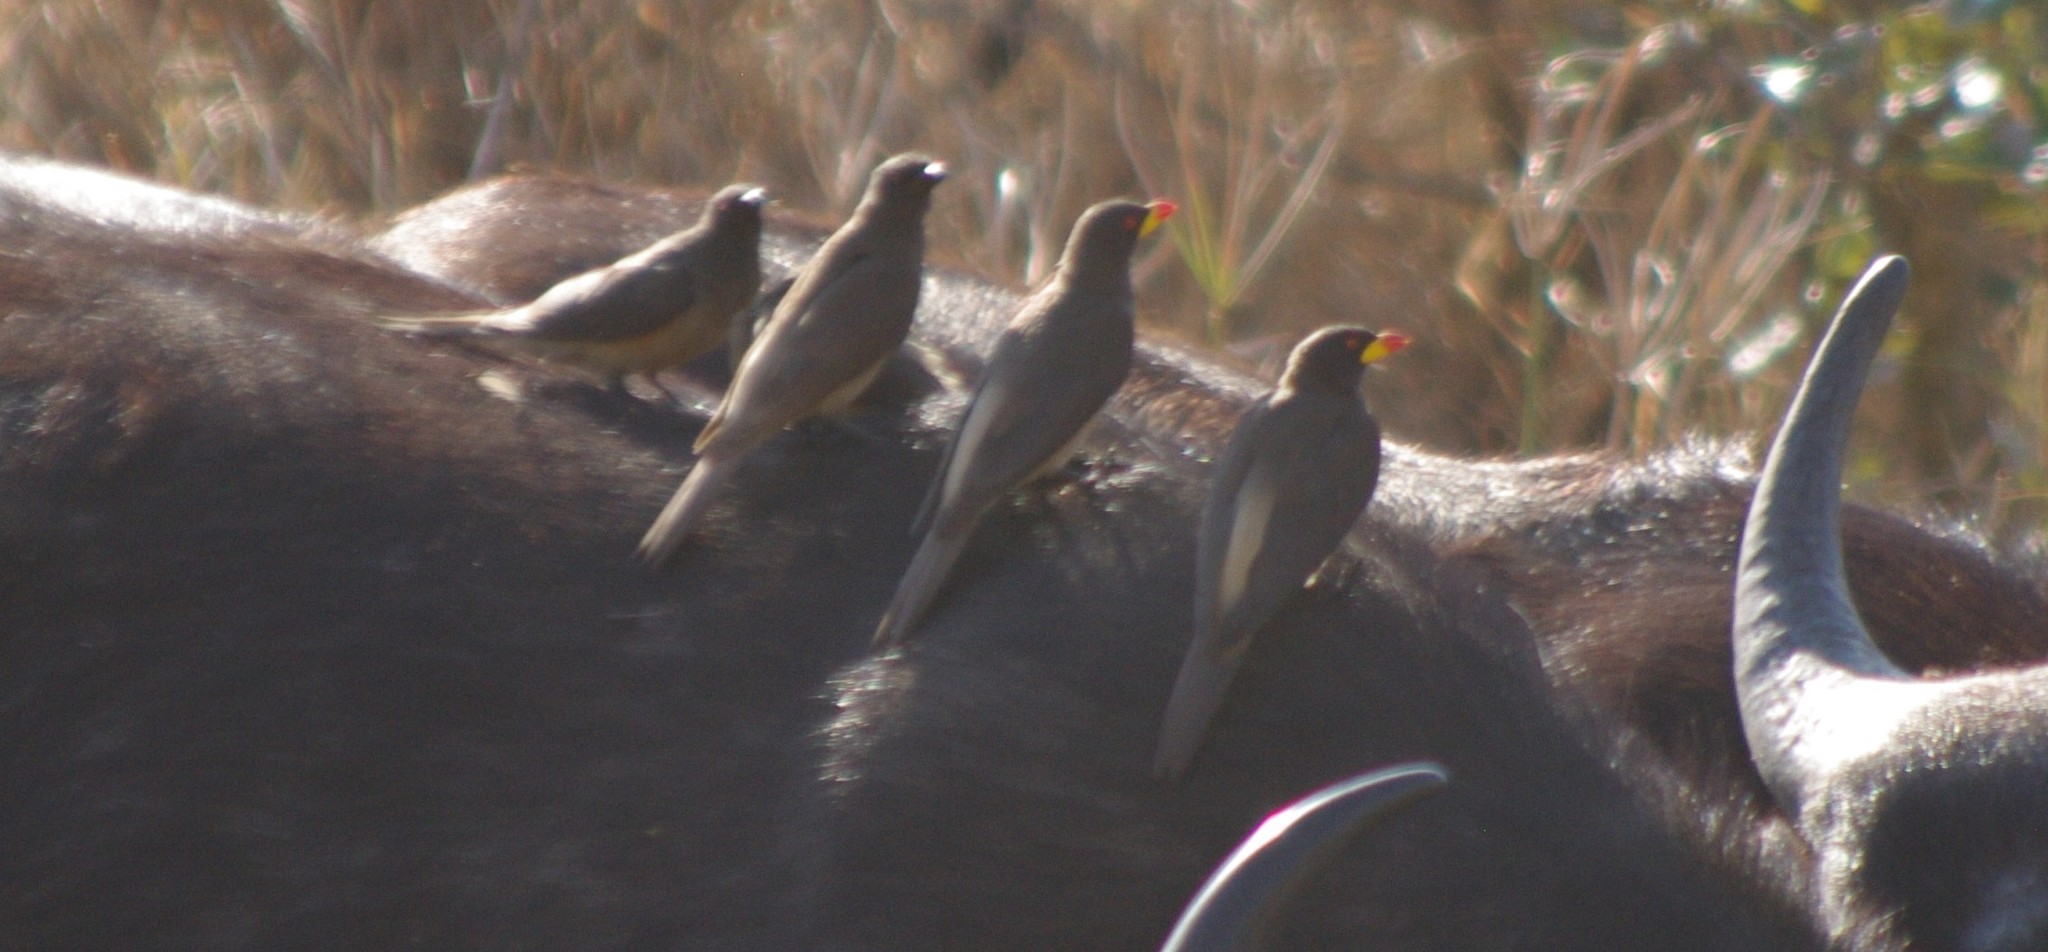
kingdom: Animalia
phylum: Chordata
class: Aves
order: Passeriformes
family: Buphagidae
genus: Buphagus
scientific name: Buphagus africanus
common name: Yellow-billed oxpecker
